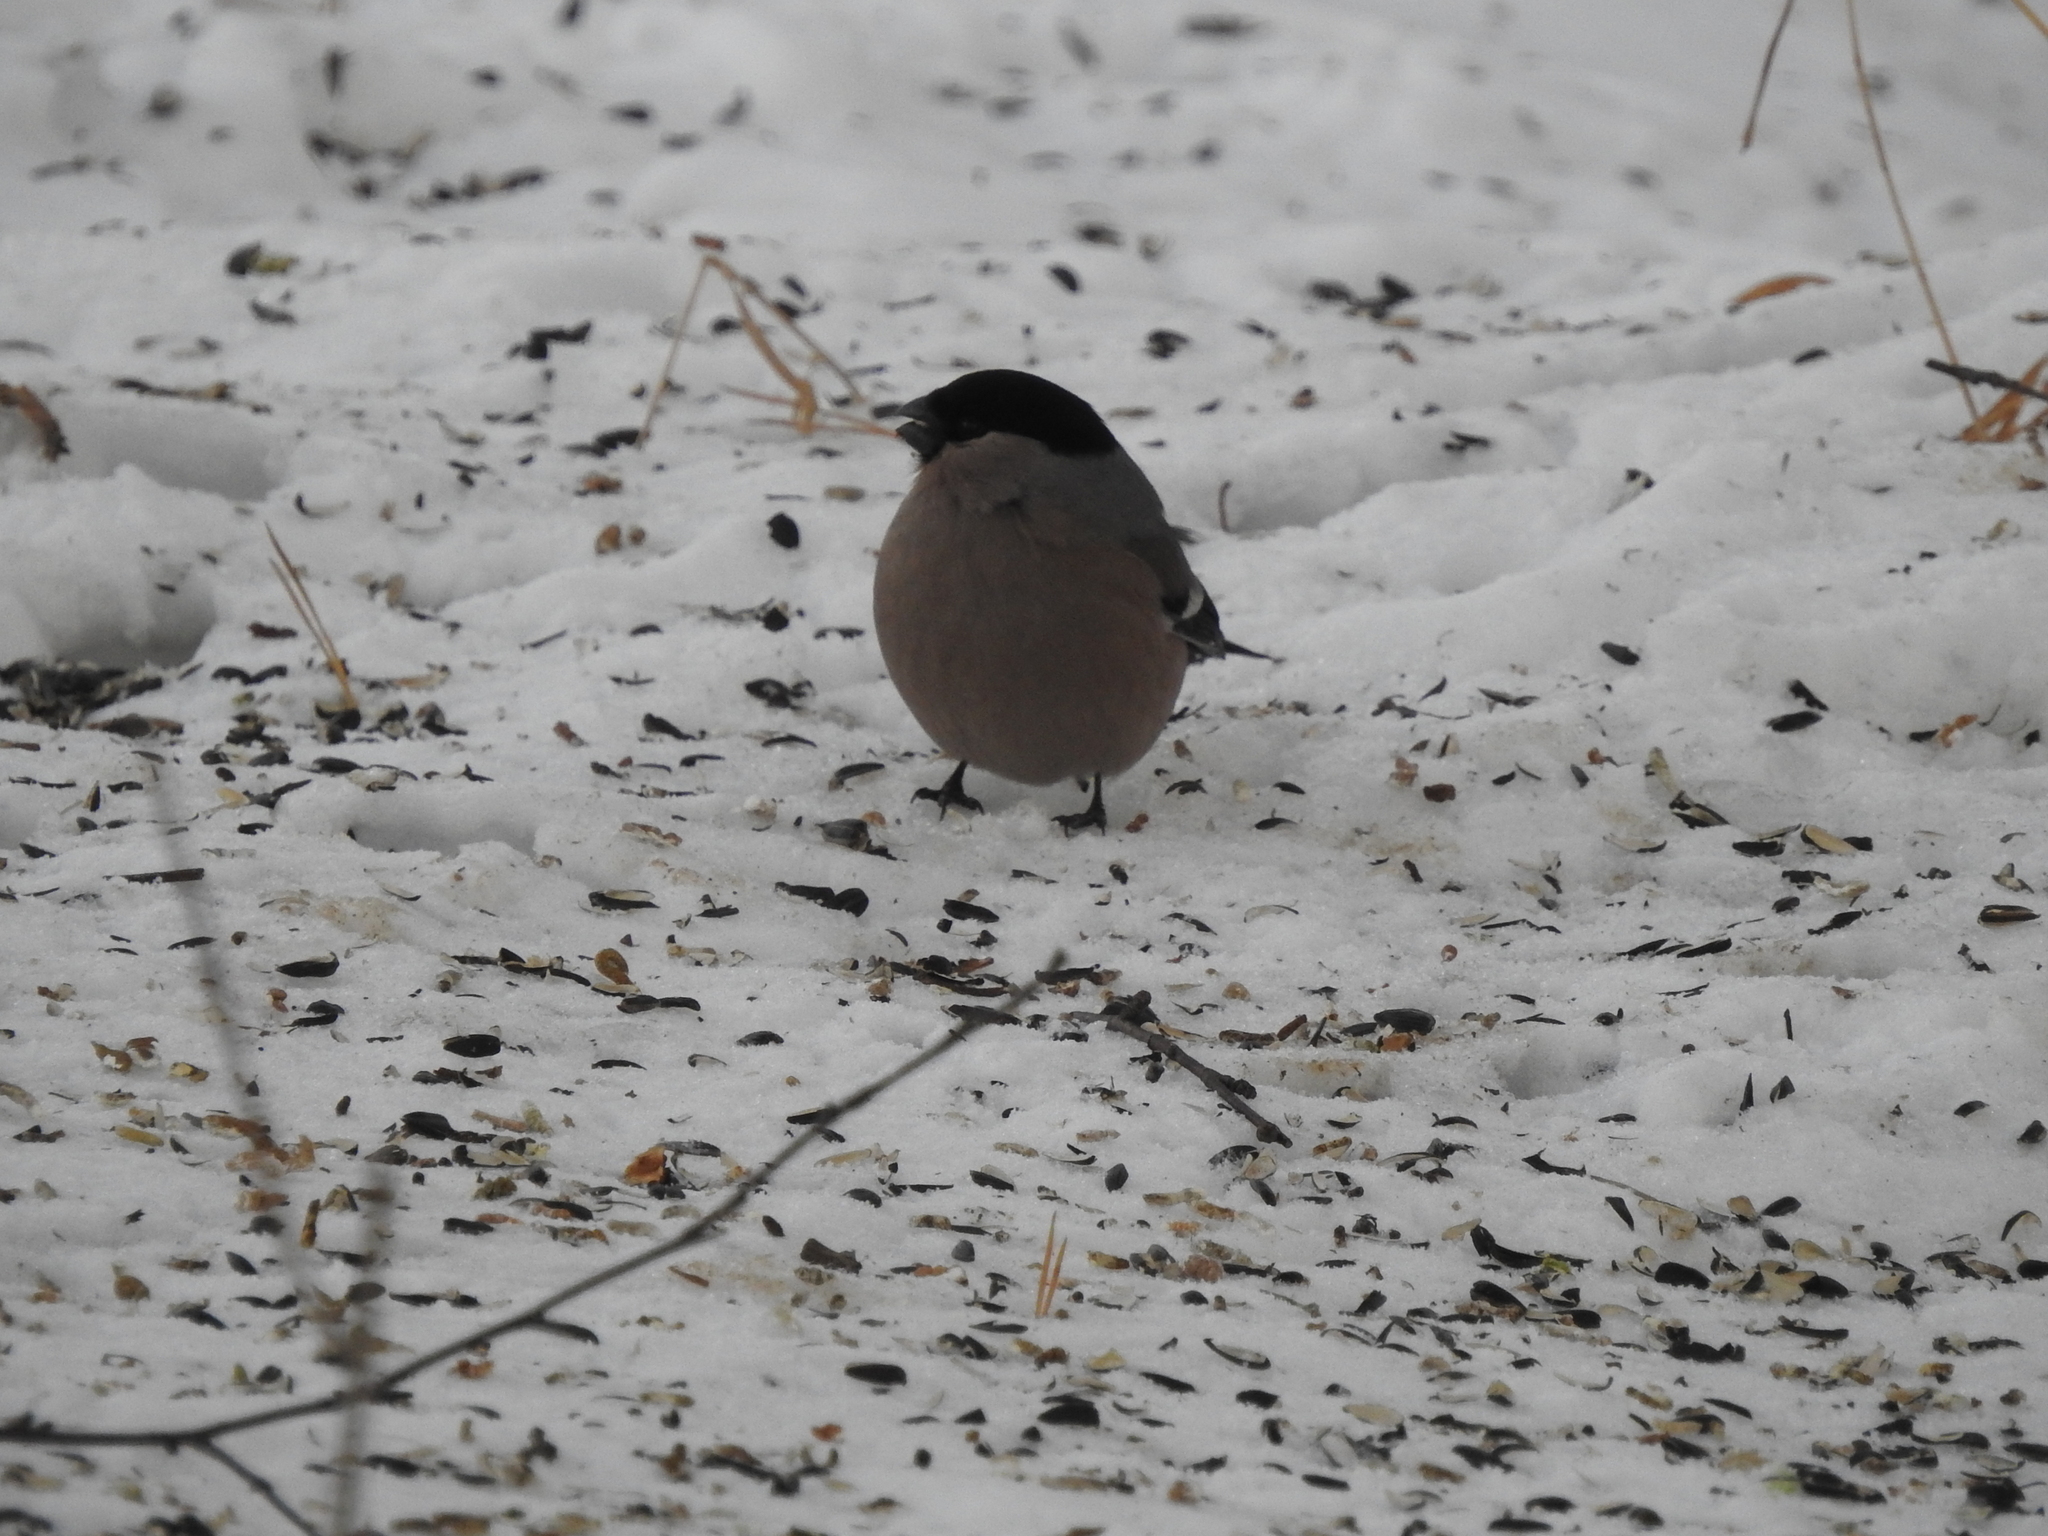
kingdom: Animalia
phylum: Chordata
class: Aves
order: Passeriformes
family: Fringillidae
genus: Pyrrhula
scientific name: Pyrrhula pyrrhula
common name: Eurasian bullfinch
